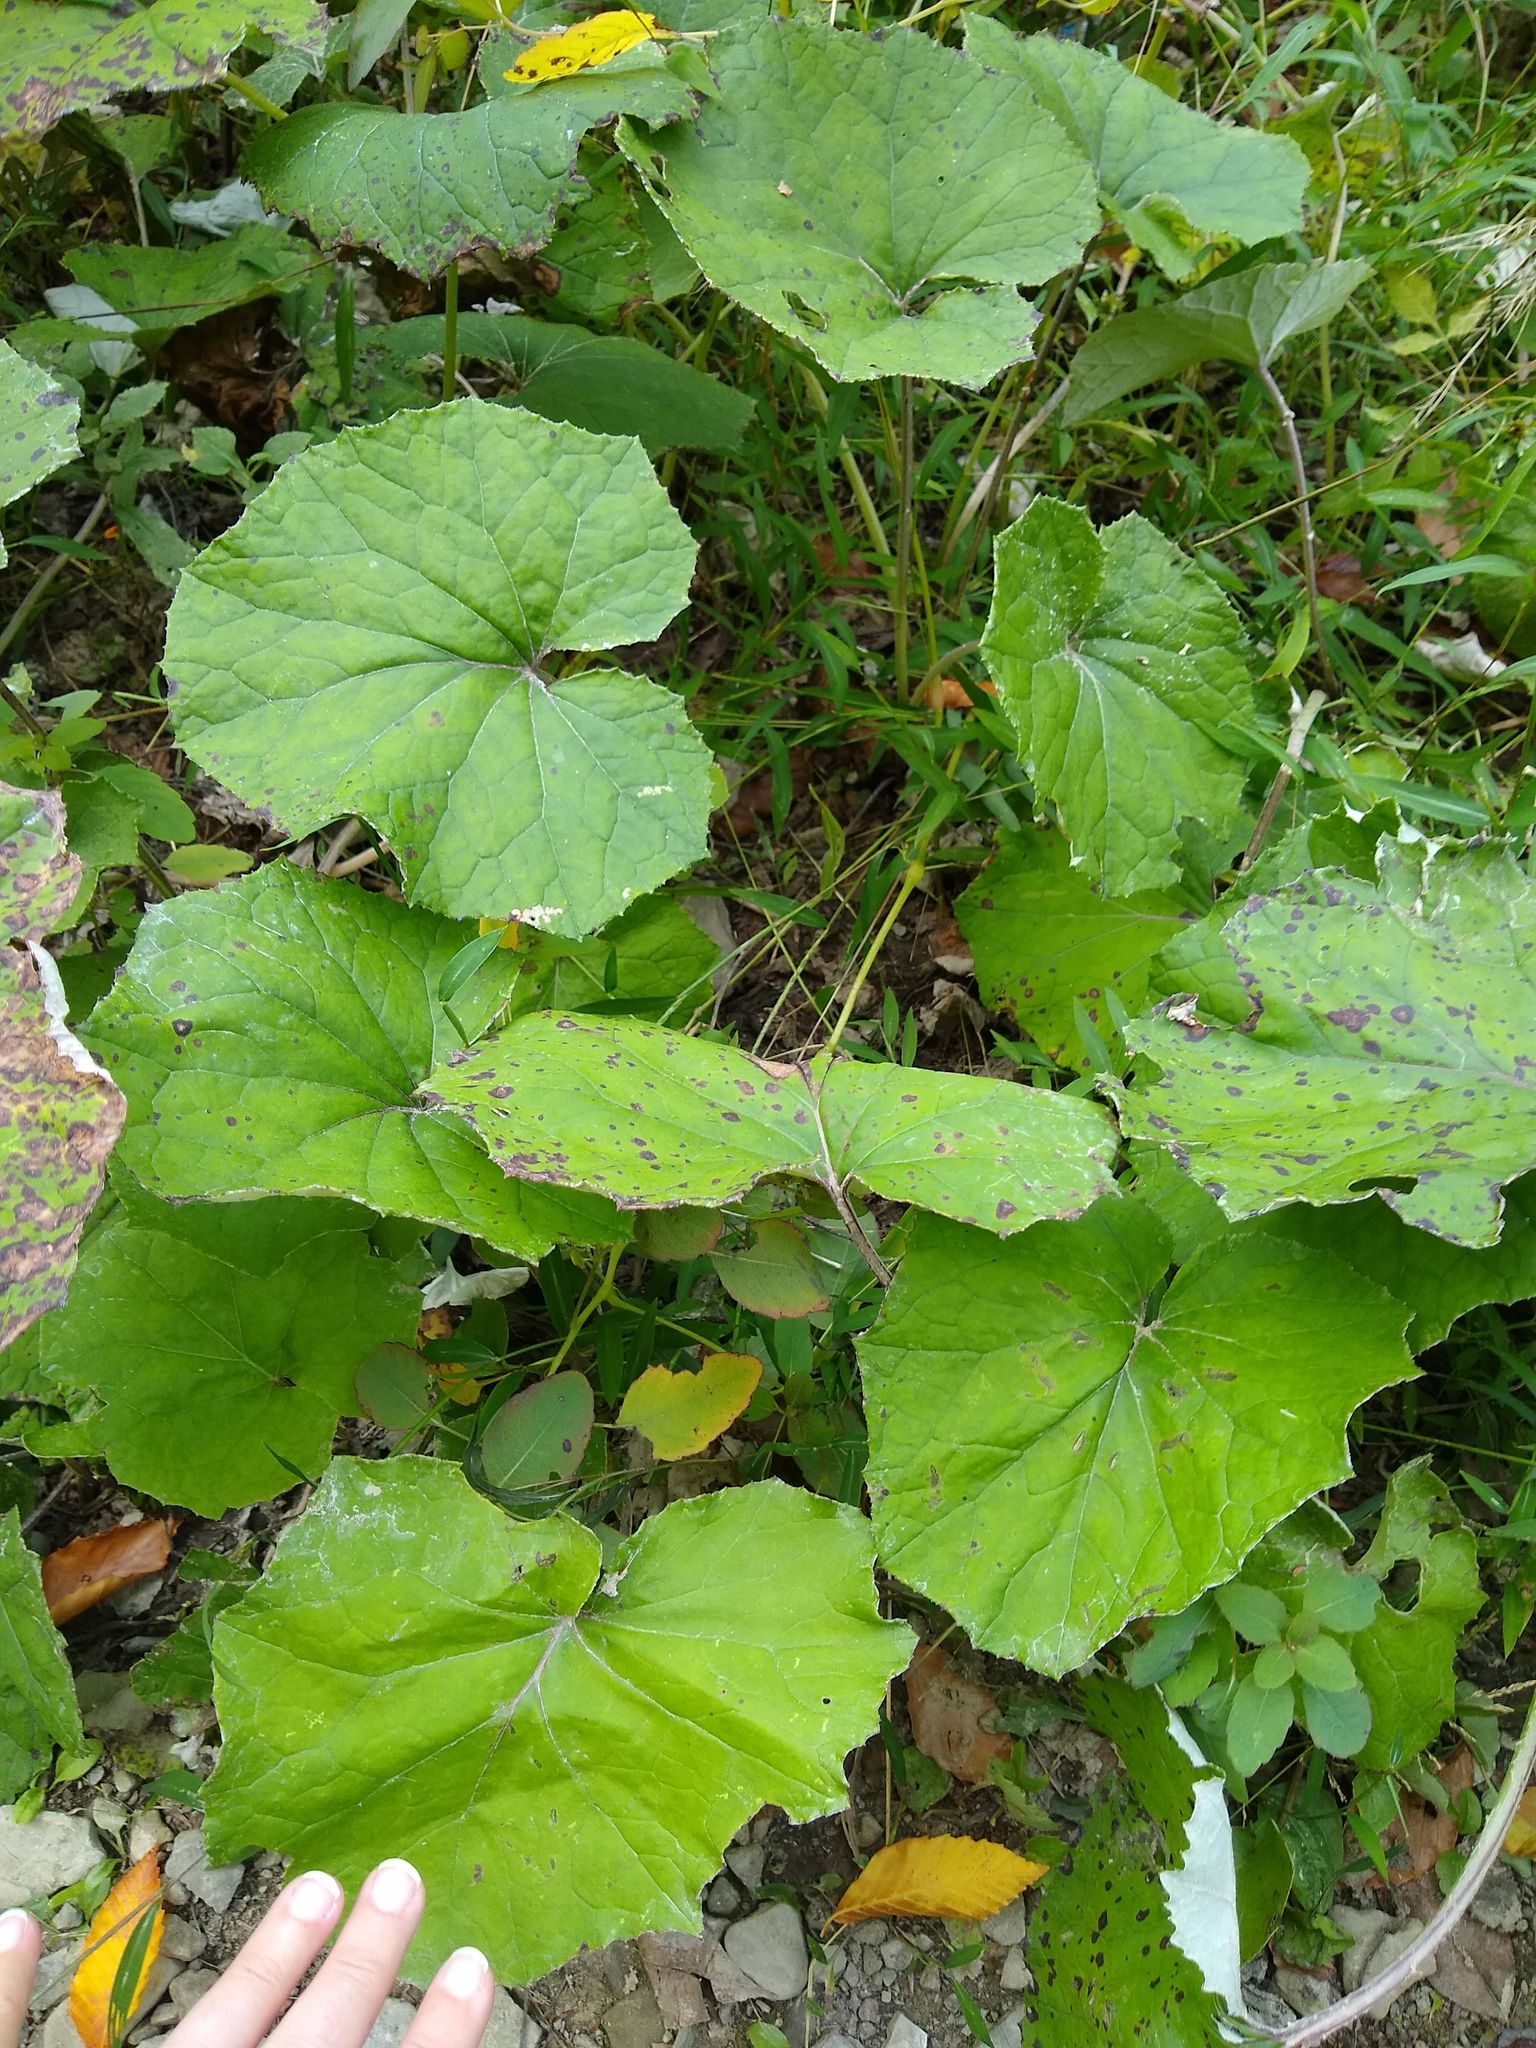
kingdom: Plantae
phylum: Tracheophyta
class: Magnoliopsida
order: Asterales
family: Asteraceae
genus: Tussilago
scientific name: Tussilago farfara
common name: Coltsfoot
